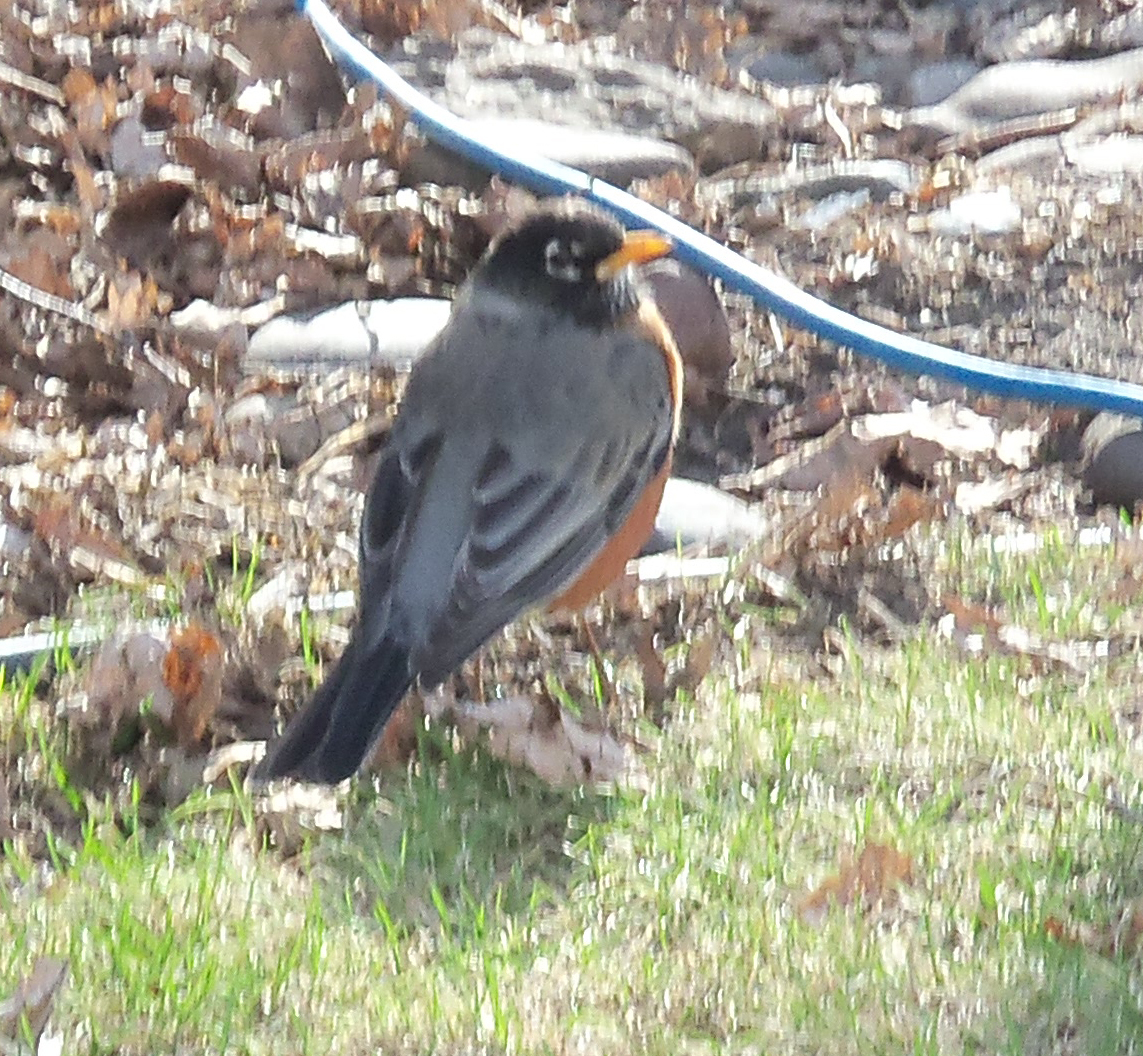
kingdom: Animalia
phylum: Chordata
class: Aves
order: Passeriformes
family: Turdidae
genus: Turdus
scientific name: Turdus migratorius
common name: American robin
